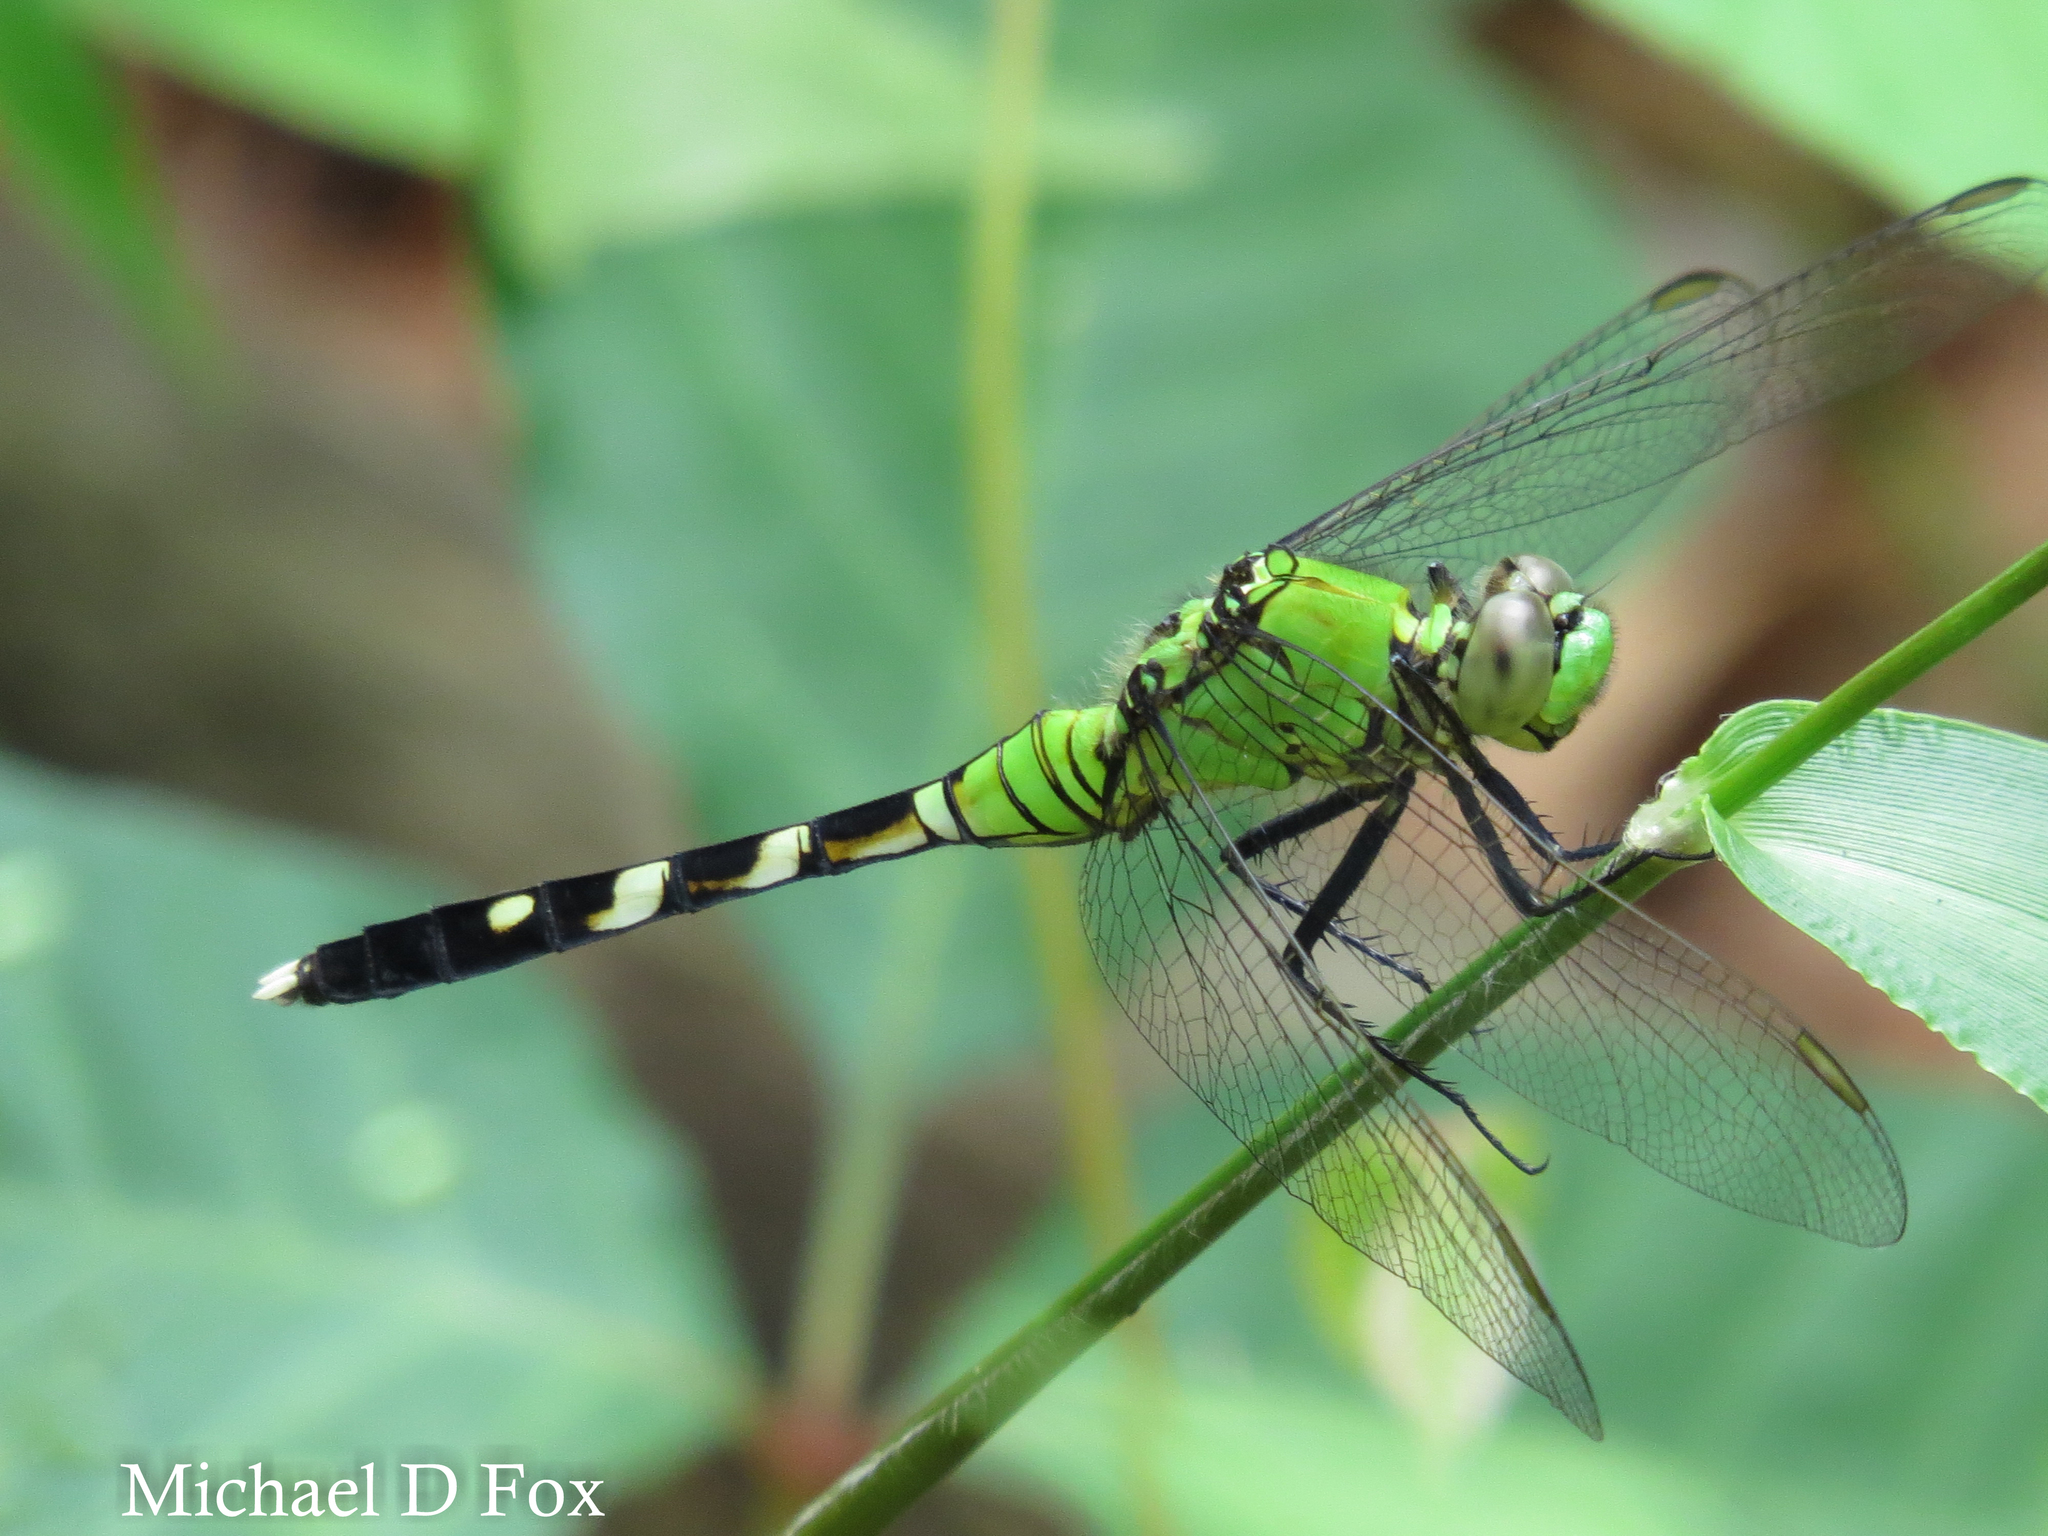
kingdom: Animalia
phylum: Arthropoda
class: Insecta
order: Odonata
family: Libellulidae
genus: Erythemis
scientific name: Erythemis simplicicollis
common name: Eastern pondhawk
